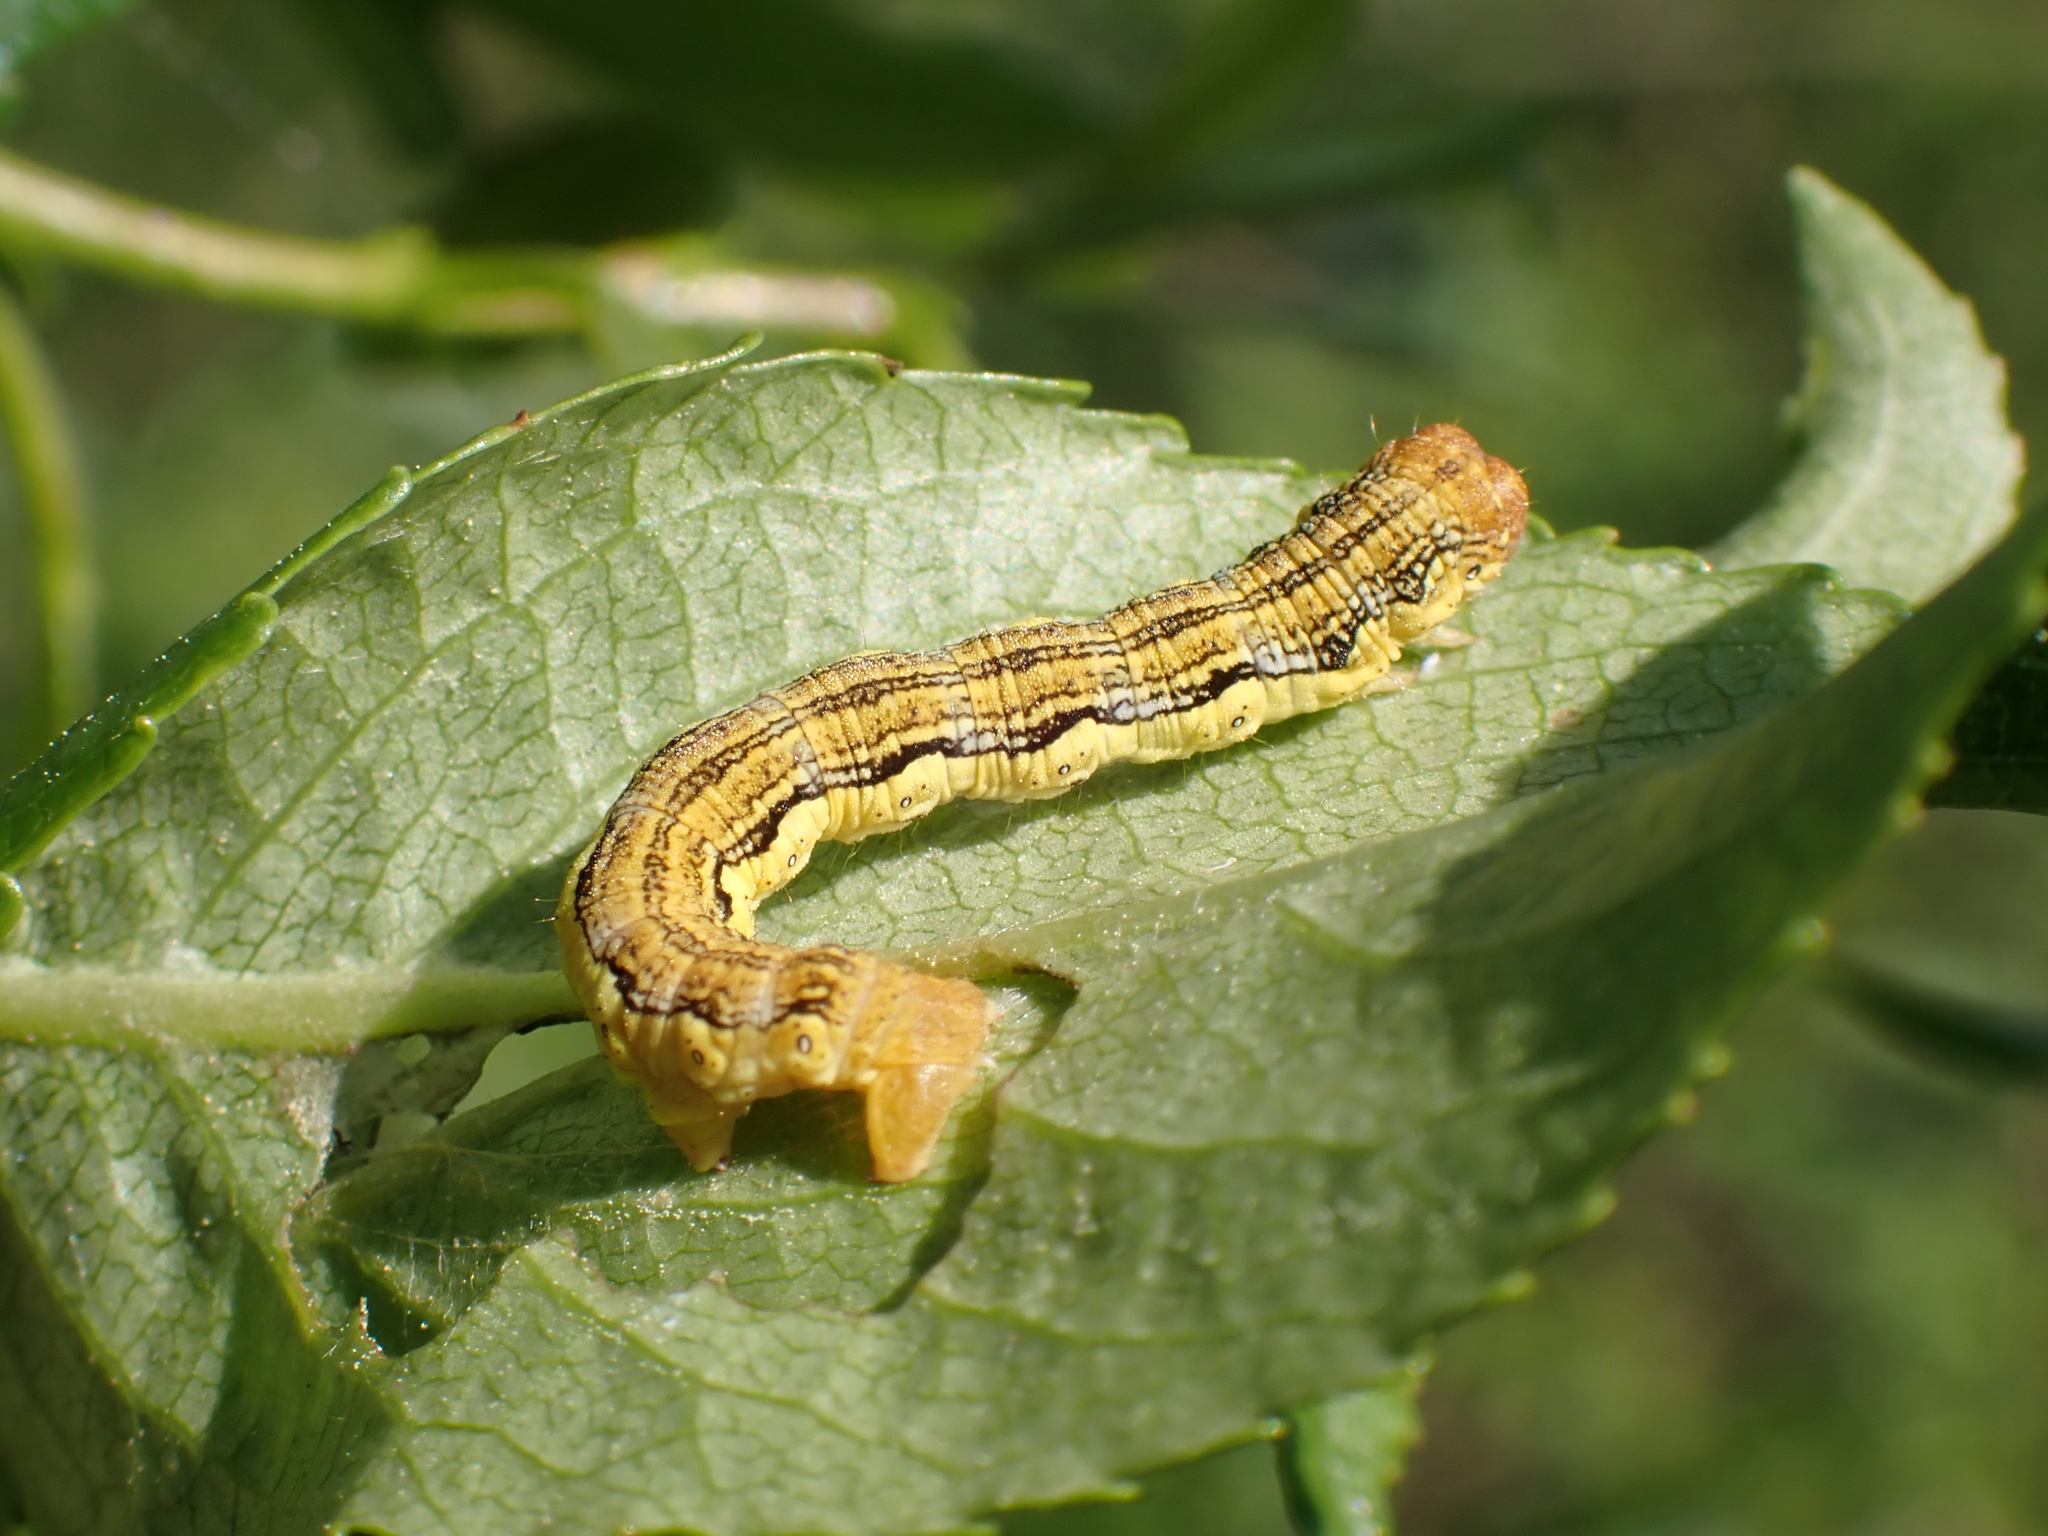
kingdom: Animalia
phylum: Arthropoda
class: Insecta
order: Lepidoptera
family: Geometridae
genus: Erannis
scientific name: Erannis defoliaria
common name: Mottled umber
